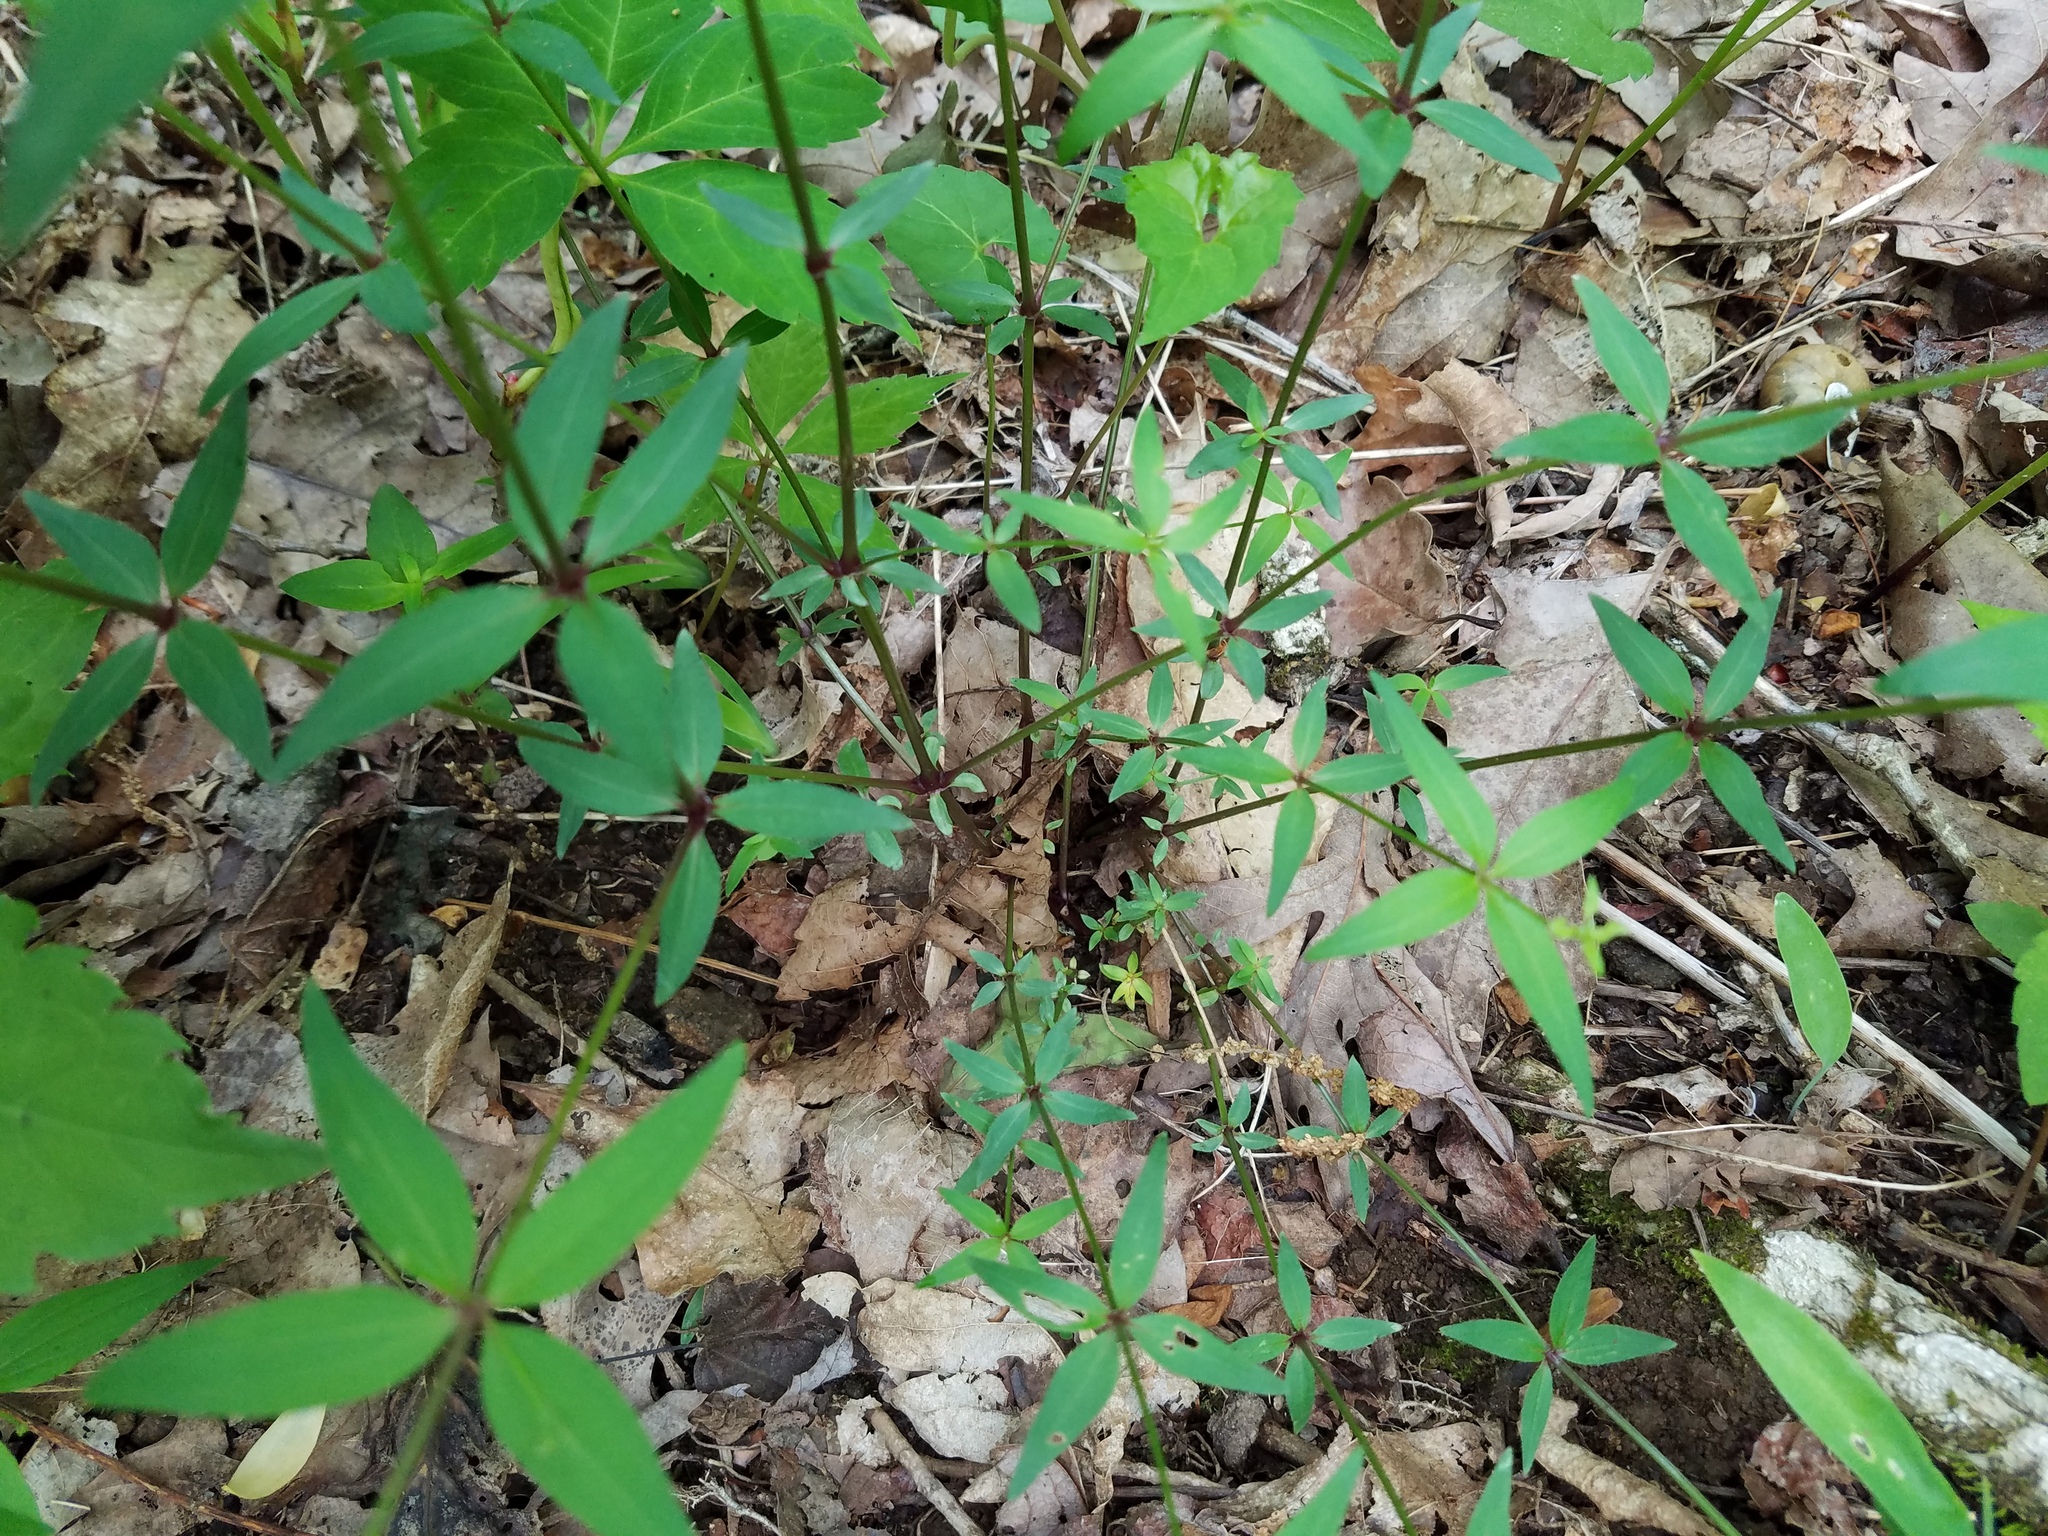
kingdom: Plantae
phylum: Tracheophyta
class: Magnoliopsida
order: Gentianales
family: Rubiaceae
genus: Galium
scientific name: Galium latifolium
